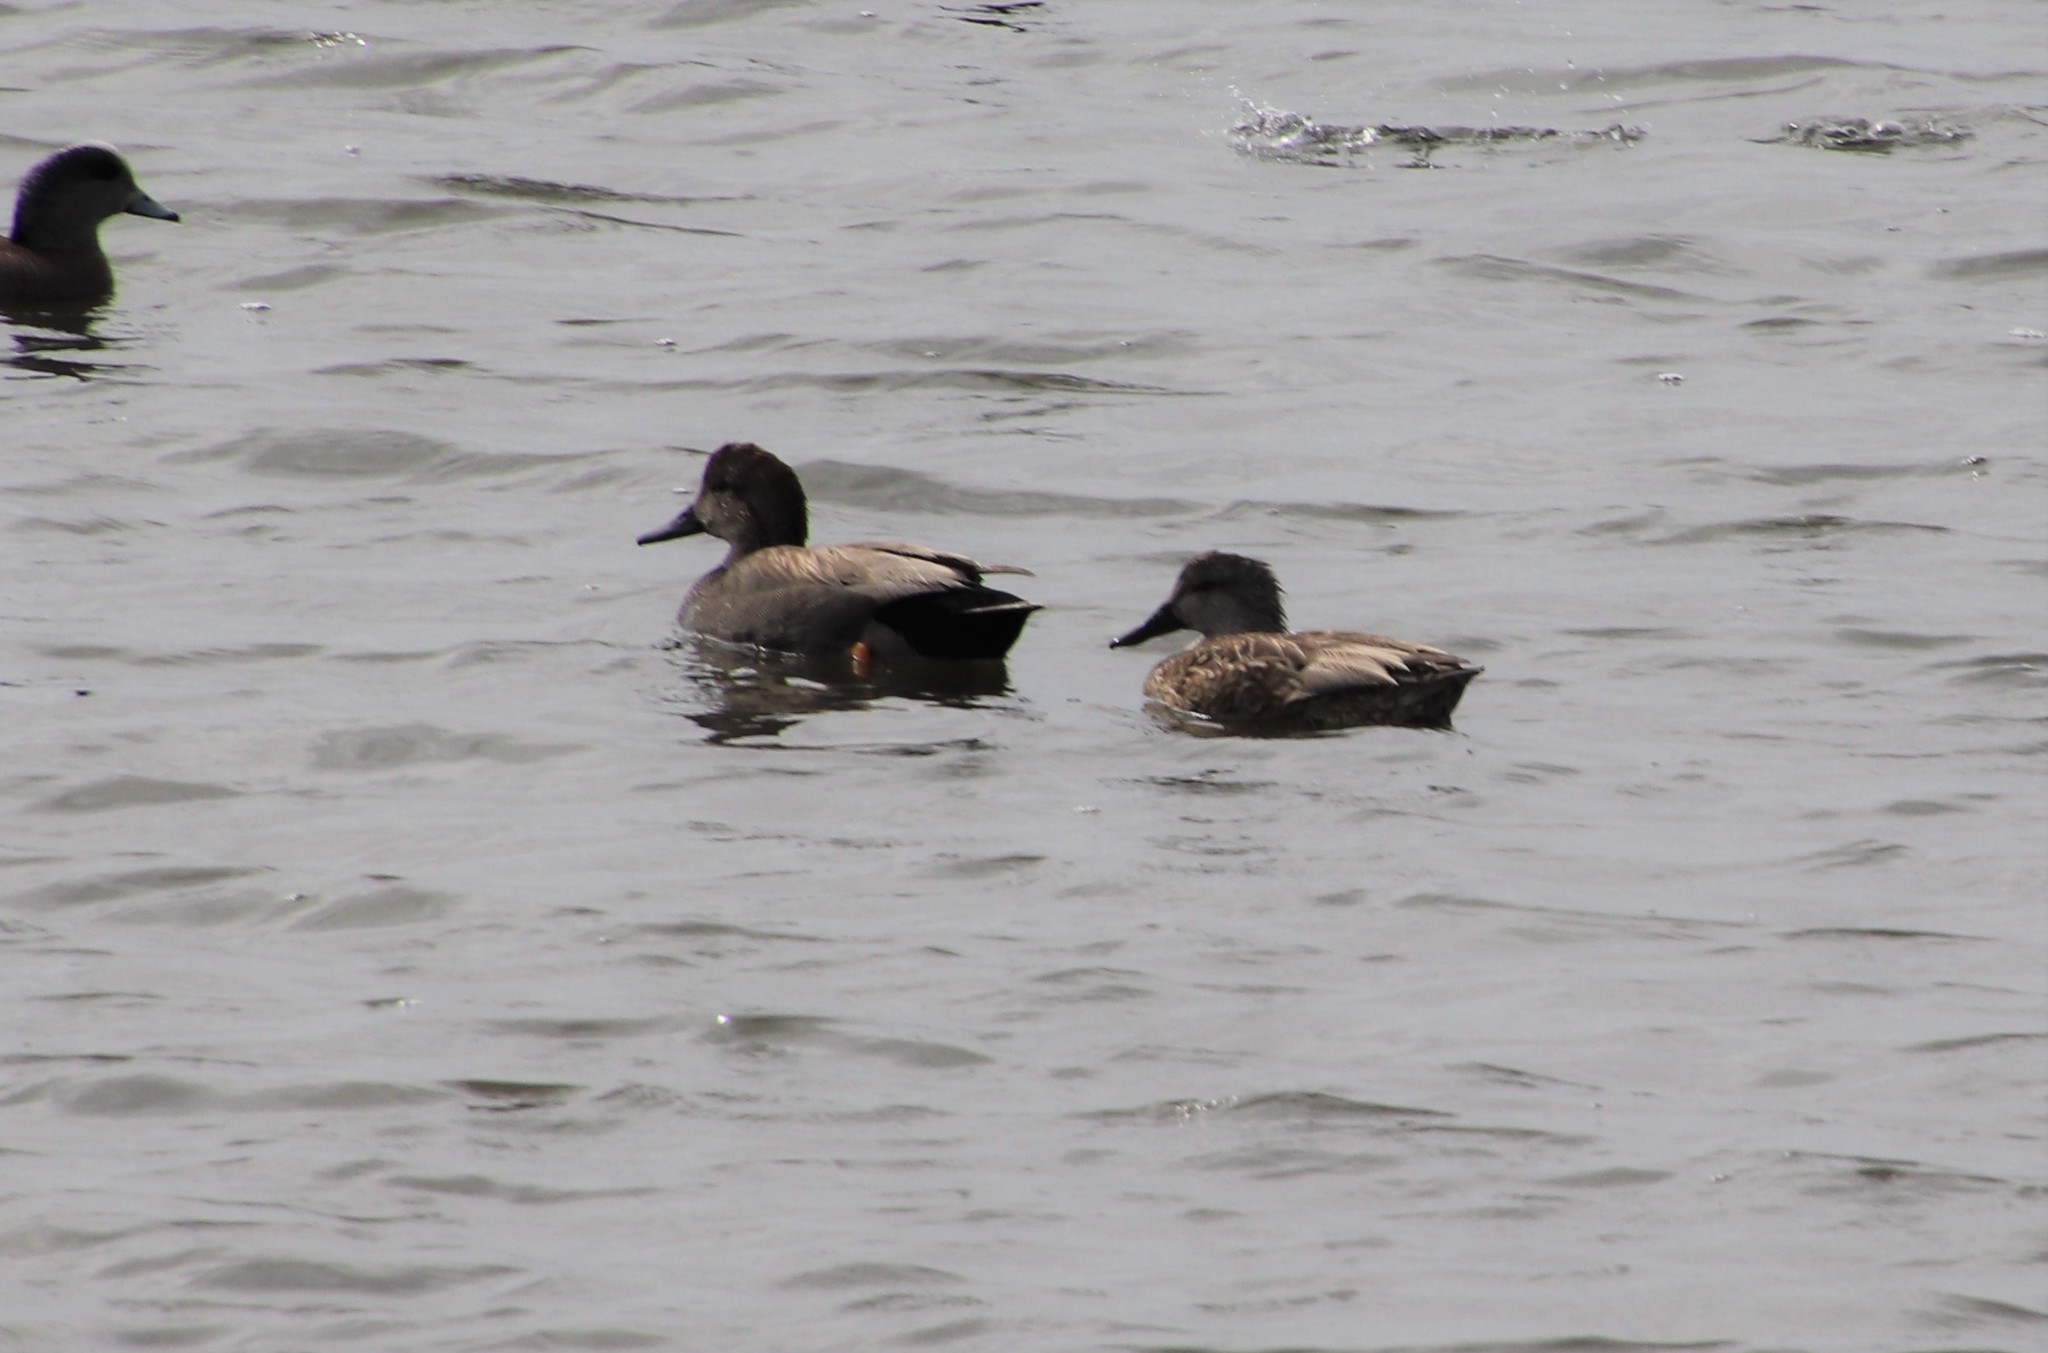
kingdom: Animalia
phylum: Chordata
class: Aves
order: Anseriformes
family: Anatidae
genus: Mareca
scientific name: Mareca strepera
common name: Gadwall
